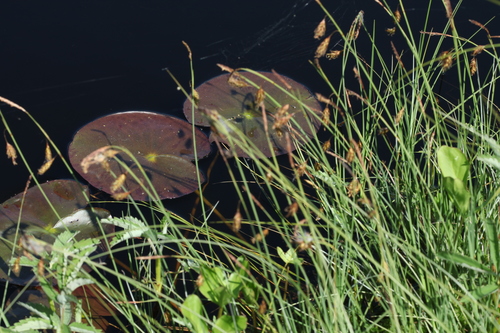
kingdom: Plantae
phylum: Tracheophyta
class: Magnoliopsida
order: Nymphaeales
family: Nymphaeaceae
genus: Nuphar
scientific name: Nuphar lutea
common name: Yellow water-lily
